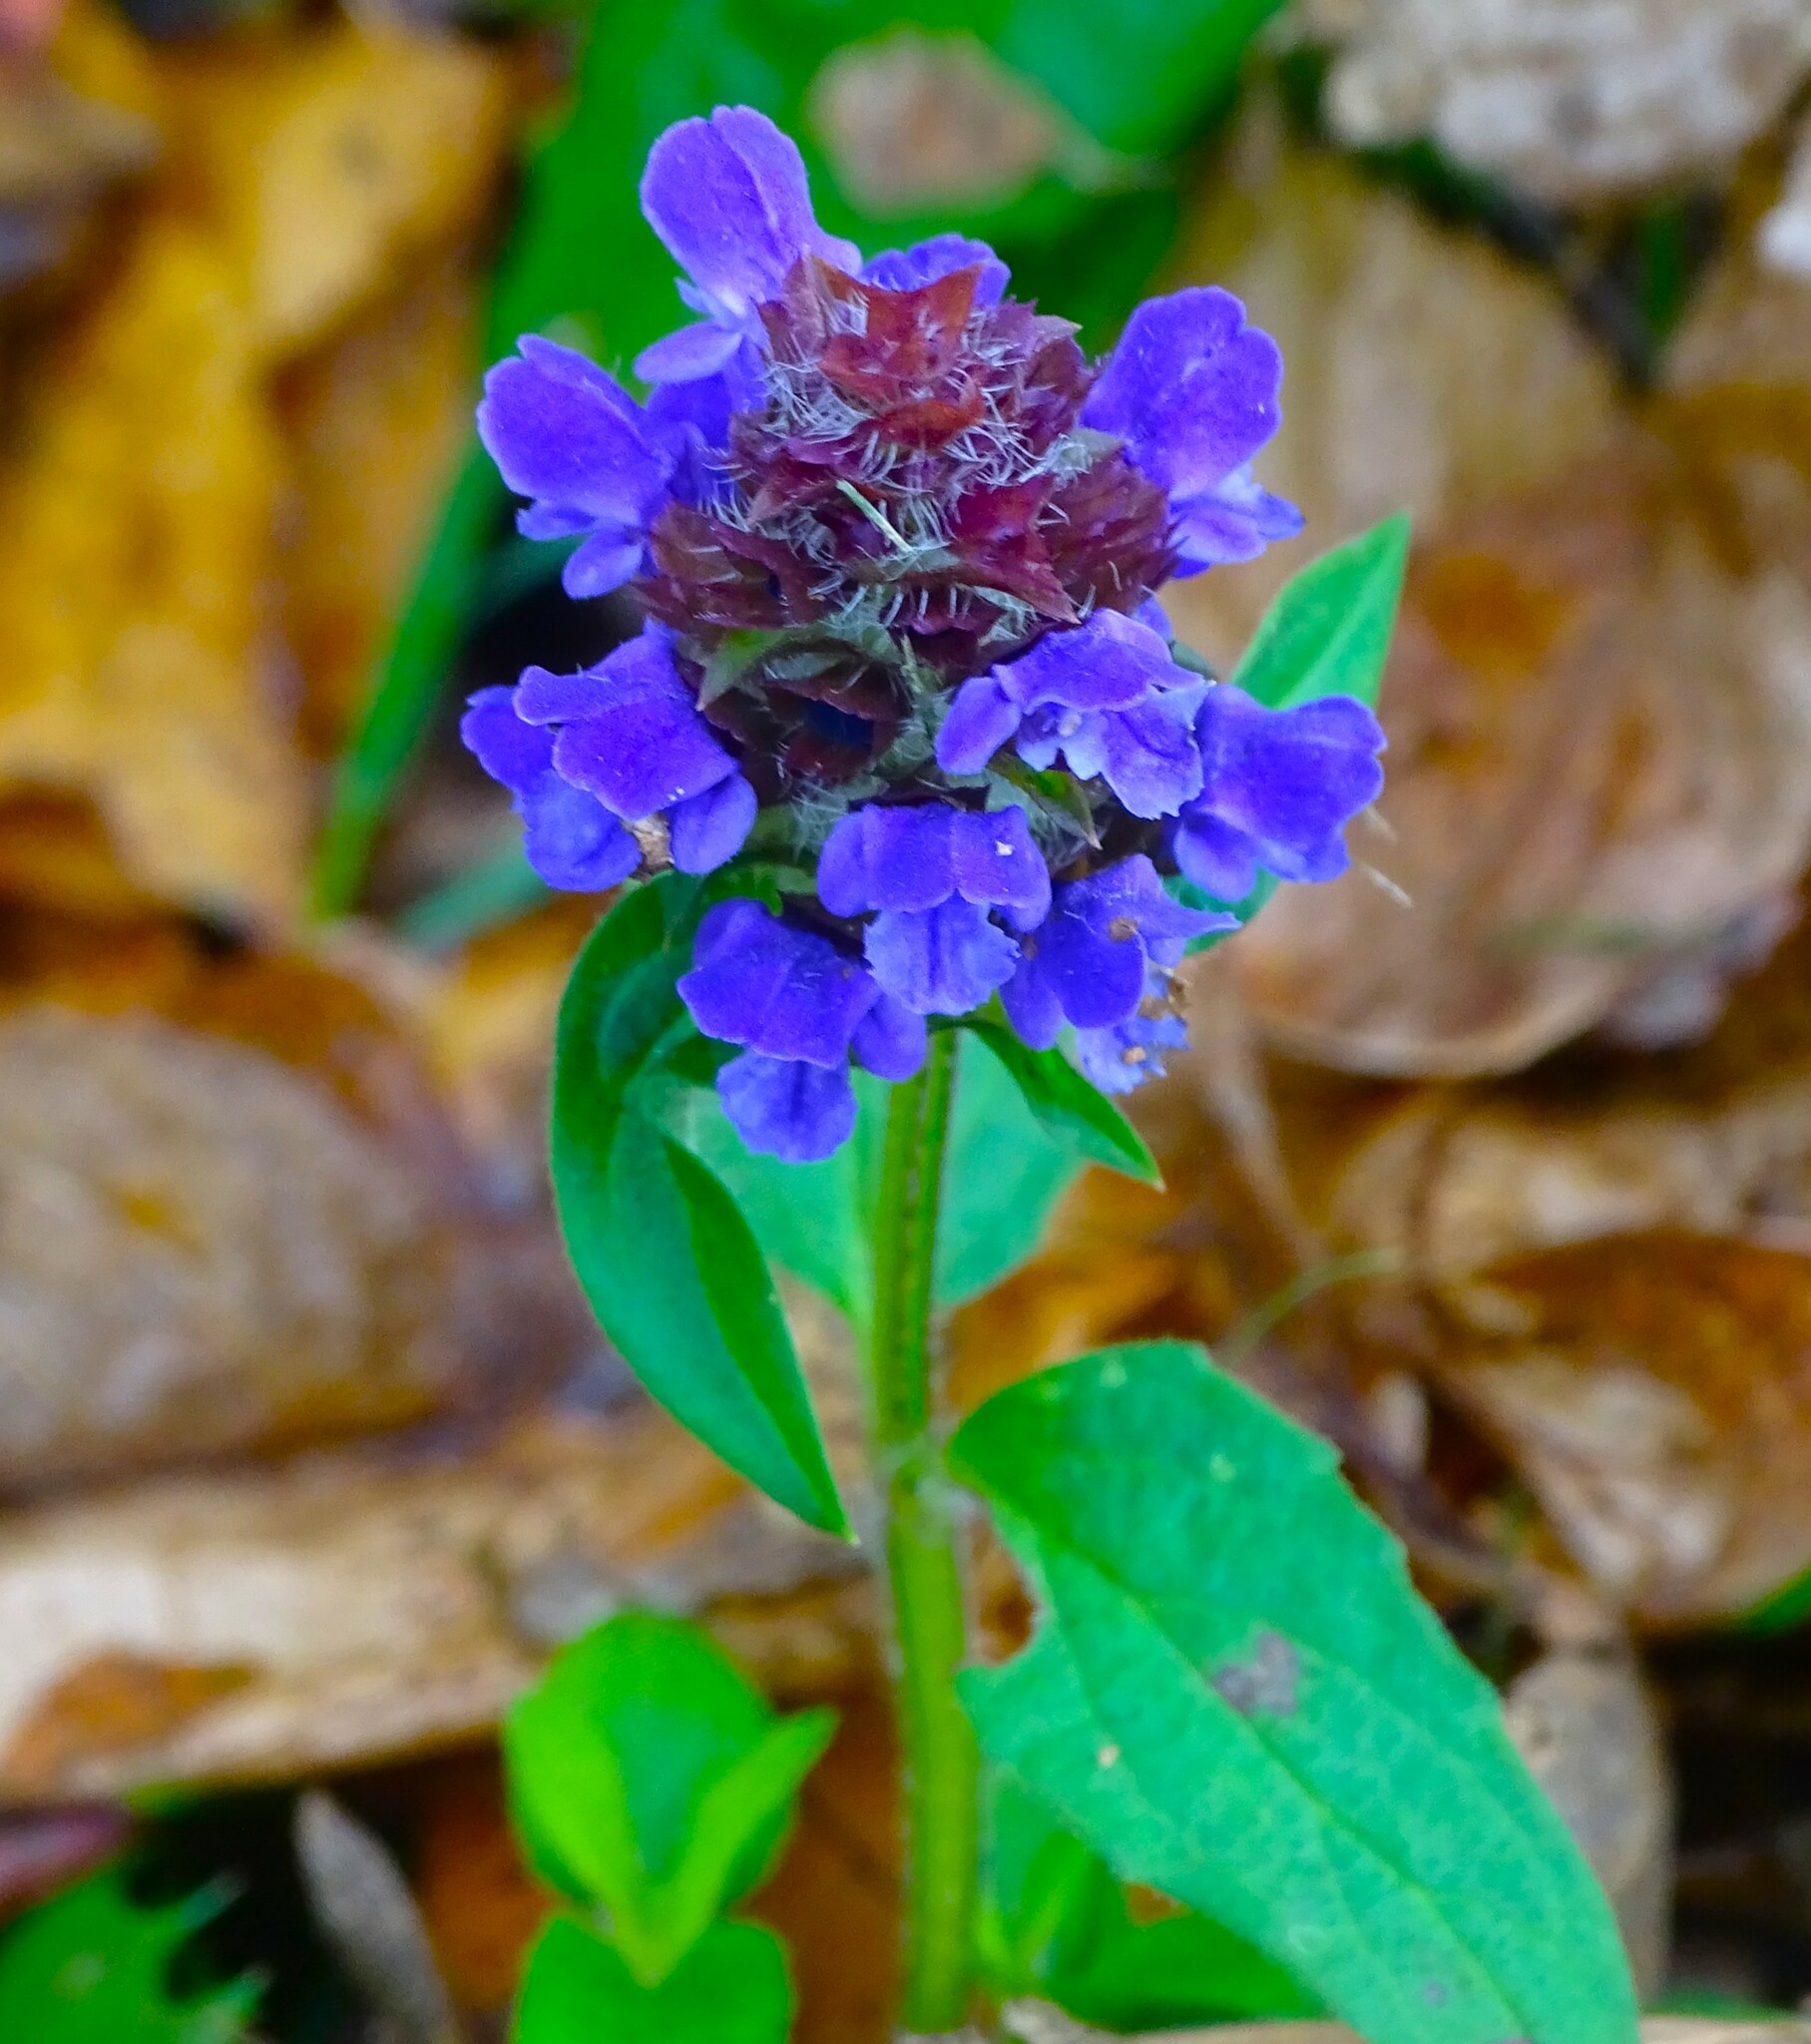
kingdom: Plantae
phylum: Tracheophyta
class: Magnoliopsida
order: Lamiales
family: Lamiaceae
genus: Prunella
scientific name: Prunella vulgaris
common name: Heal-all
